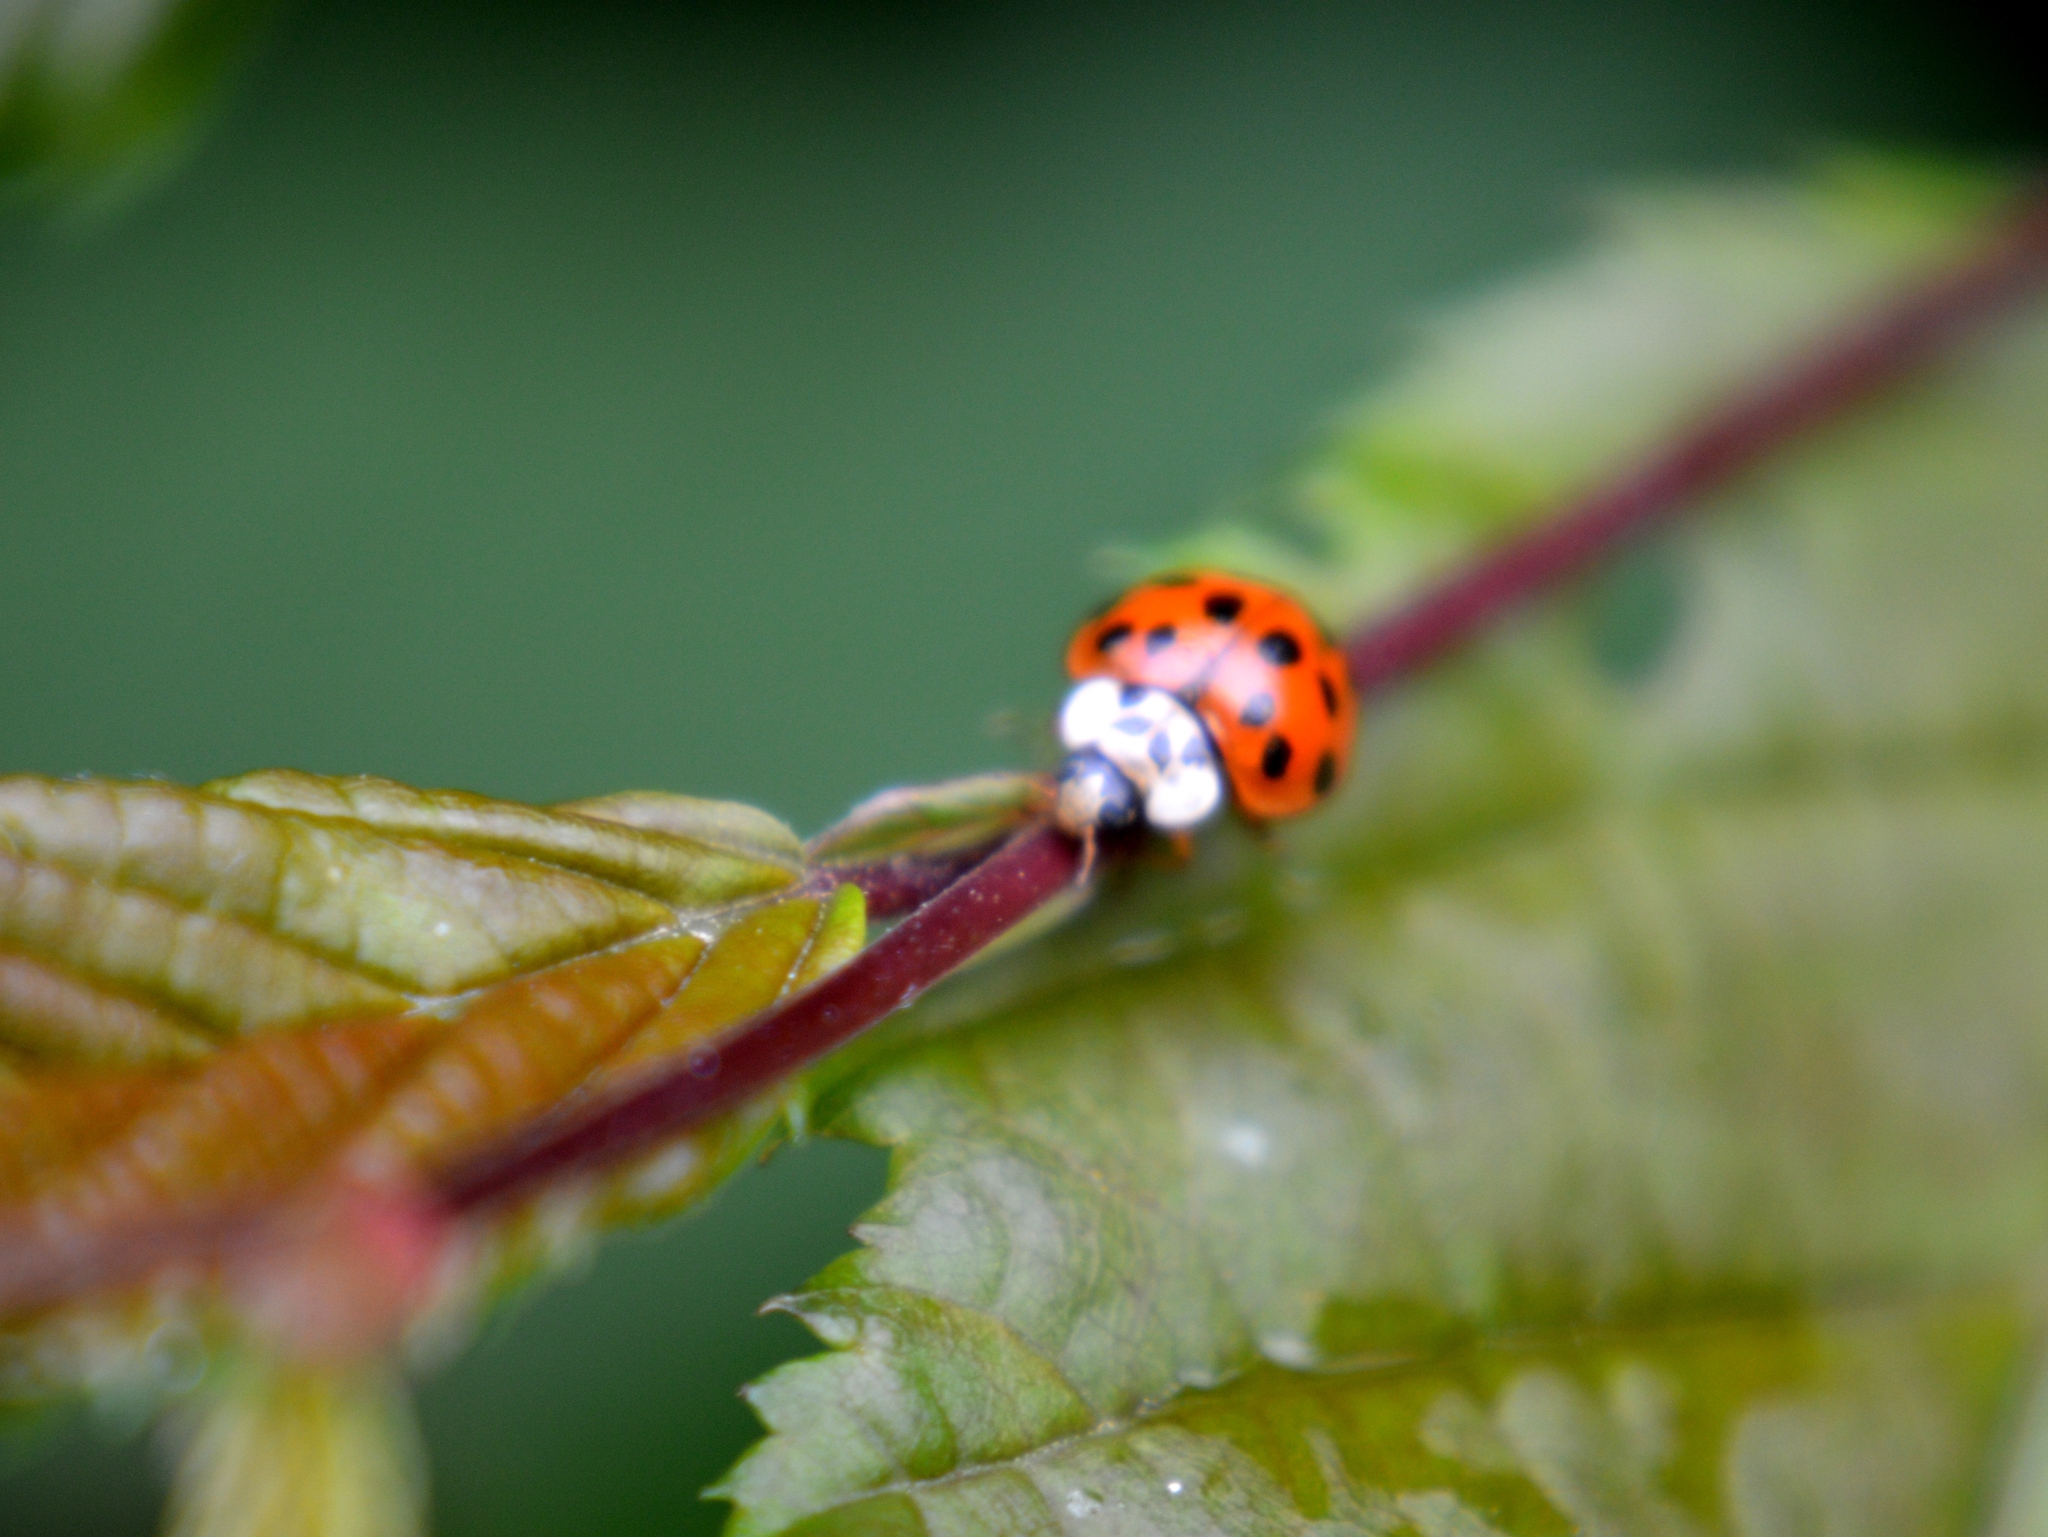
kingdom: Animalia
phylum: Arthropoda
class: Insecta
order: Coleoptera
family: Coccinellidae
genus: Harmonia
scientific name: Harmonia axyridis
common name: Harlequin ladybird
